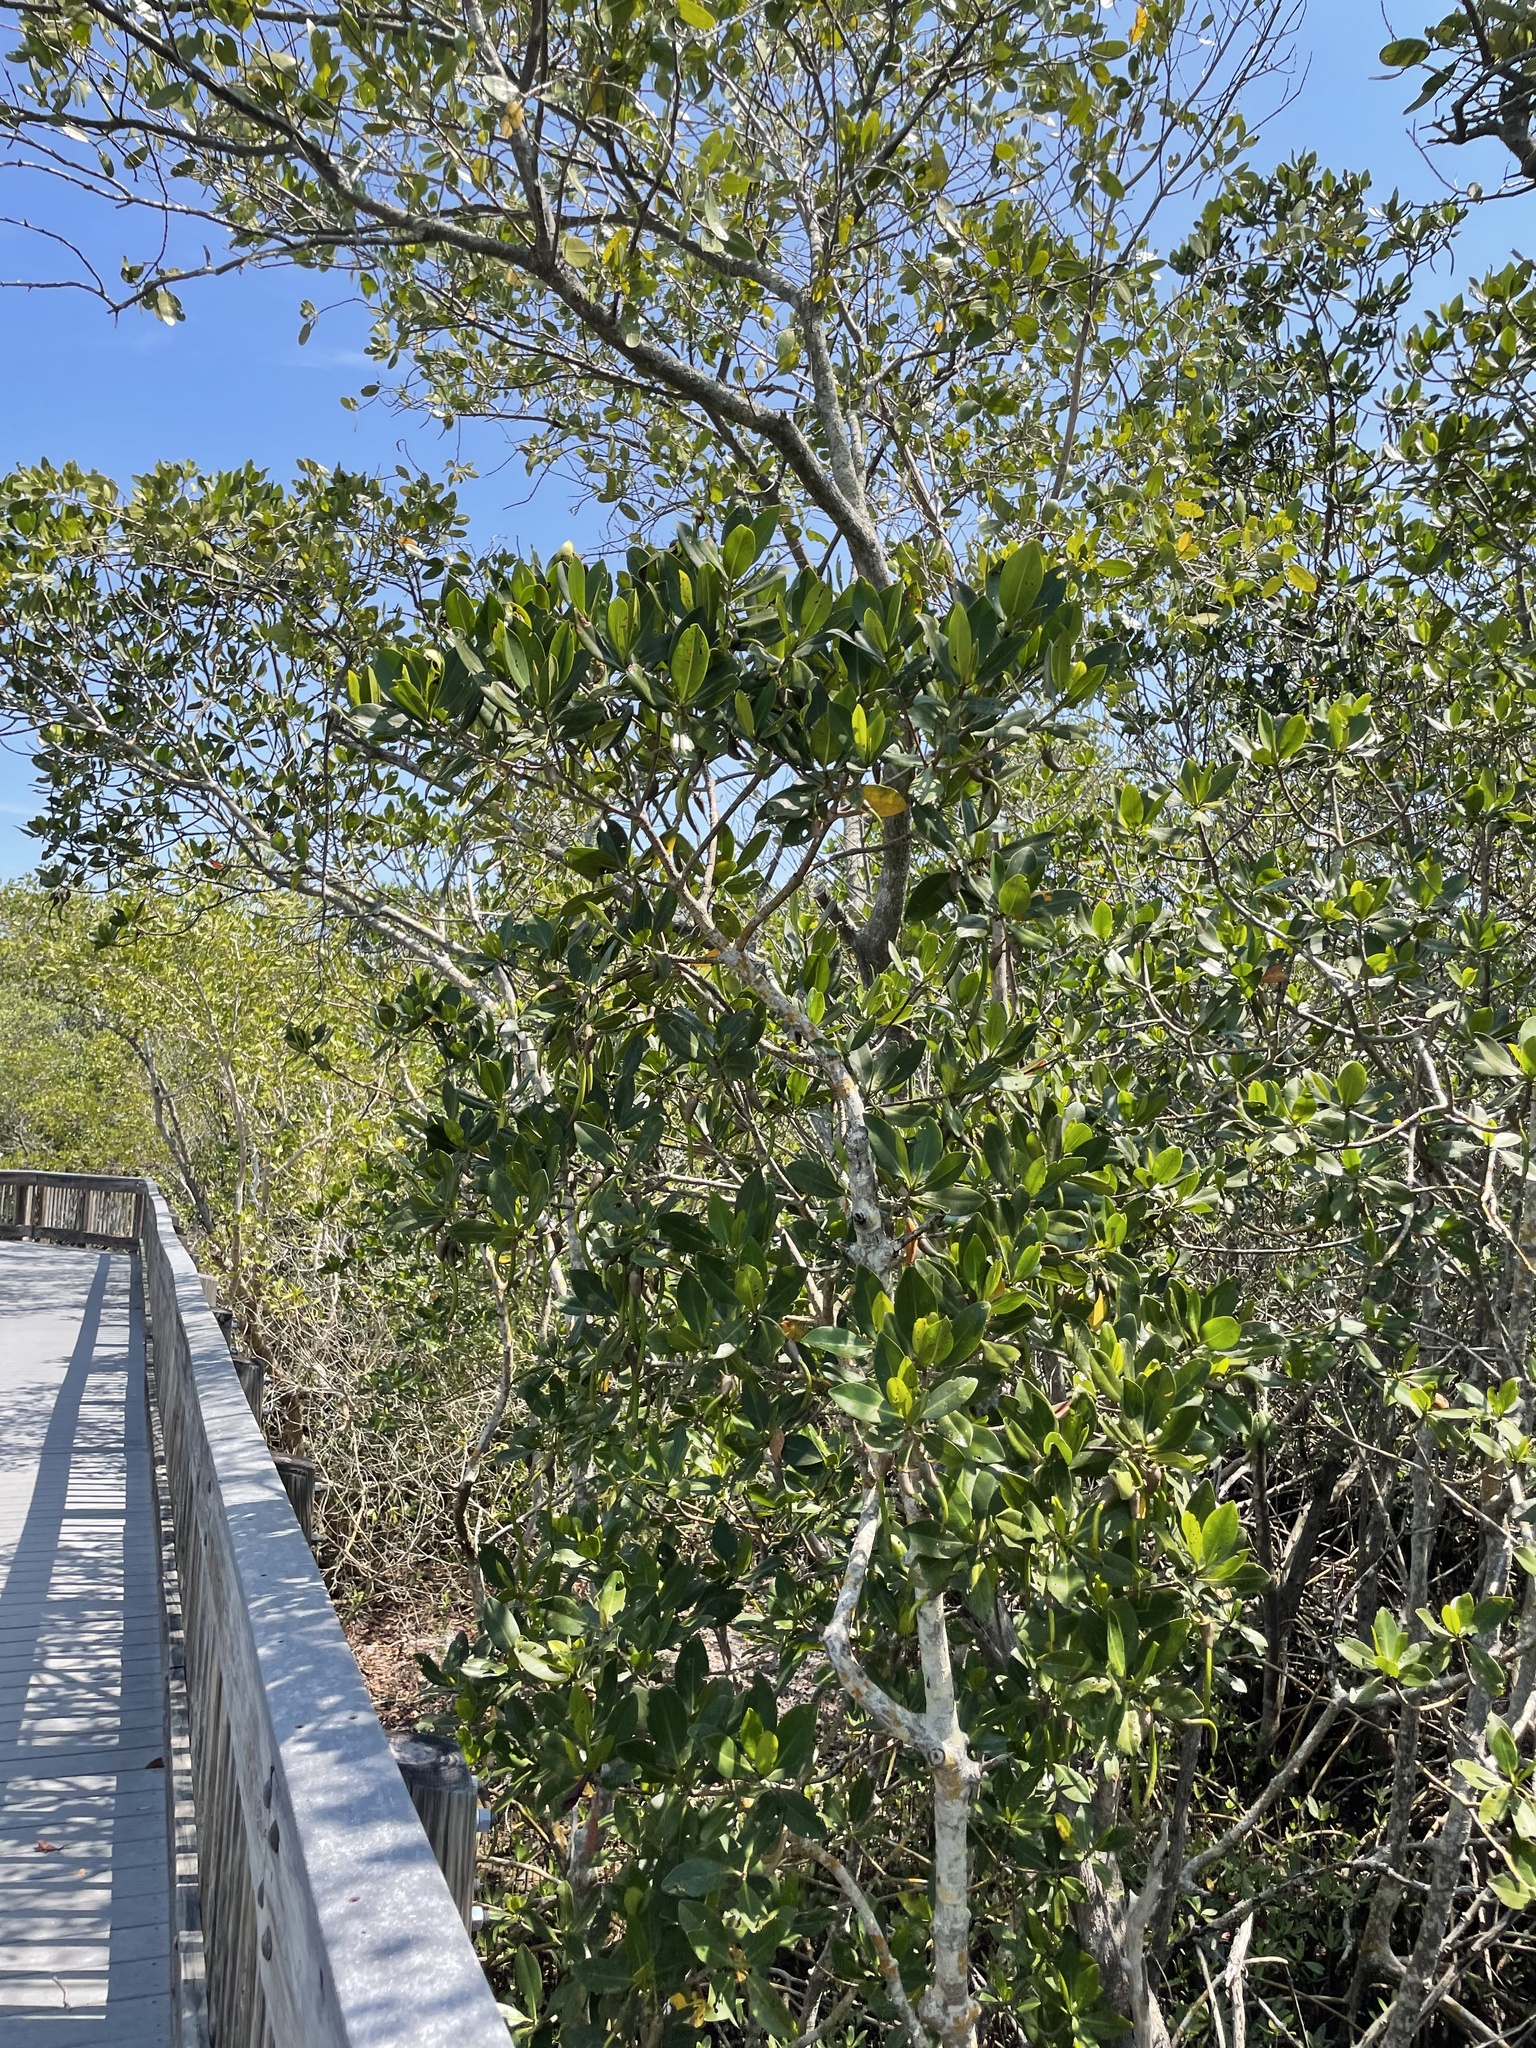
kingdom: Plantae
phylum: Tracheophyta
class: Magnoliopsida
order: Malpighiales
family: Rhizophoraceae
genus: Rhizophora
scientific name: Rhizophora mangle
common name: Red mangrove
